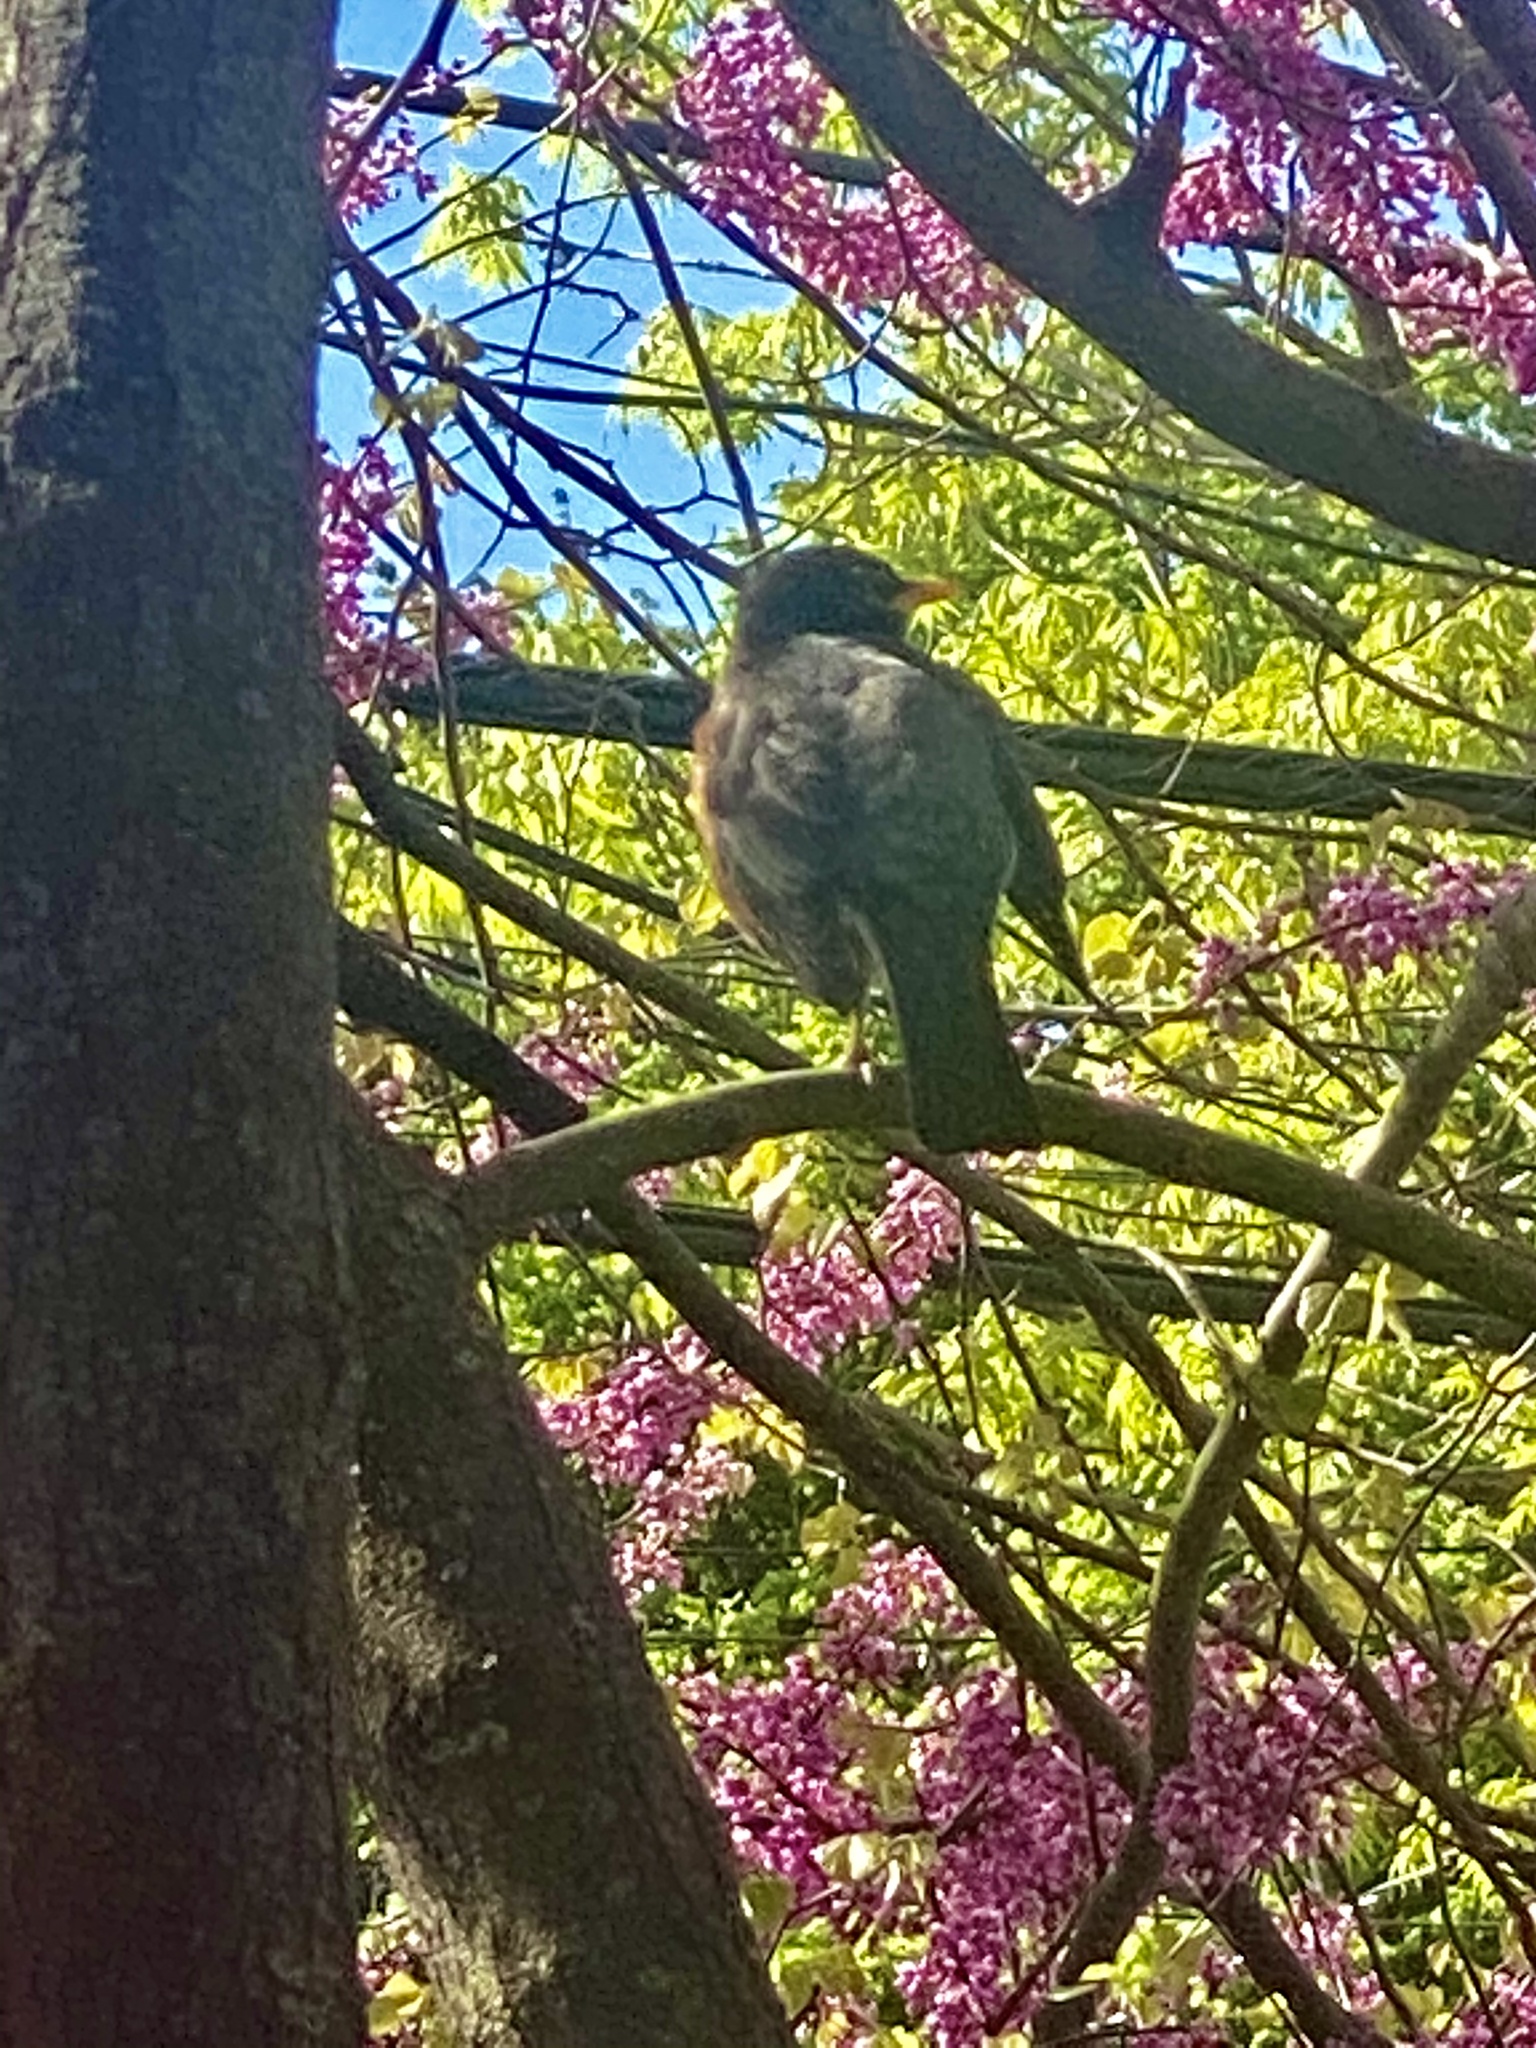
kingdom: Animalia
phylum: Chordata
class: Aves
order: Passeriformes
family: Turdidae
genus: Turdus
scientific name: Turdus migratorius
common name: American robin
